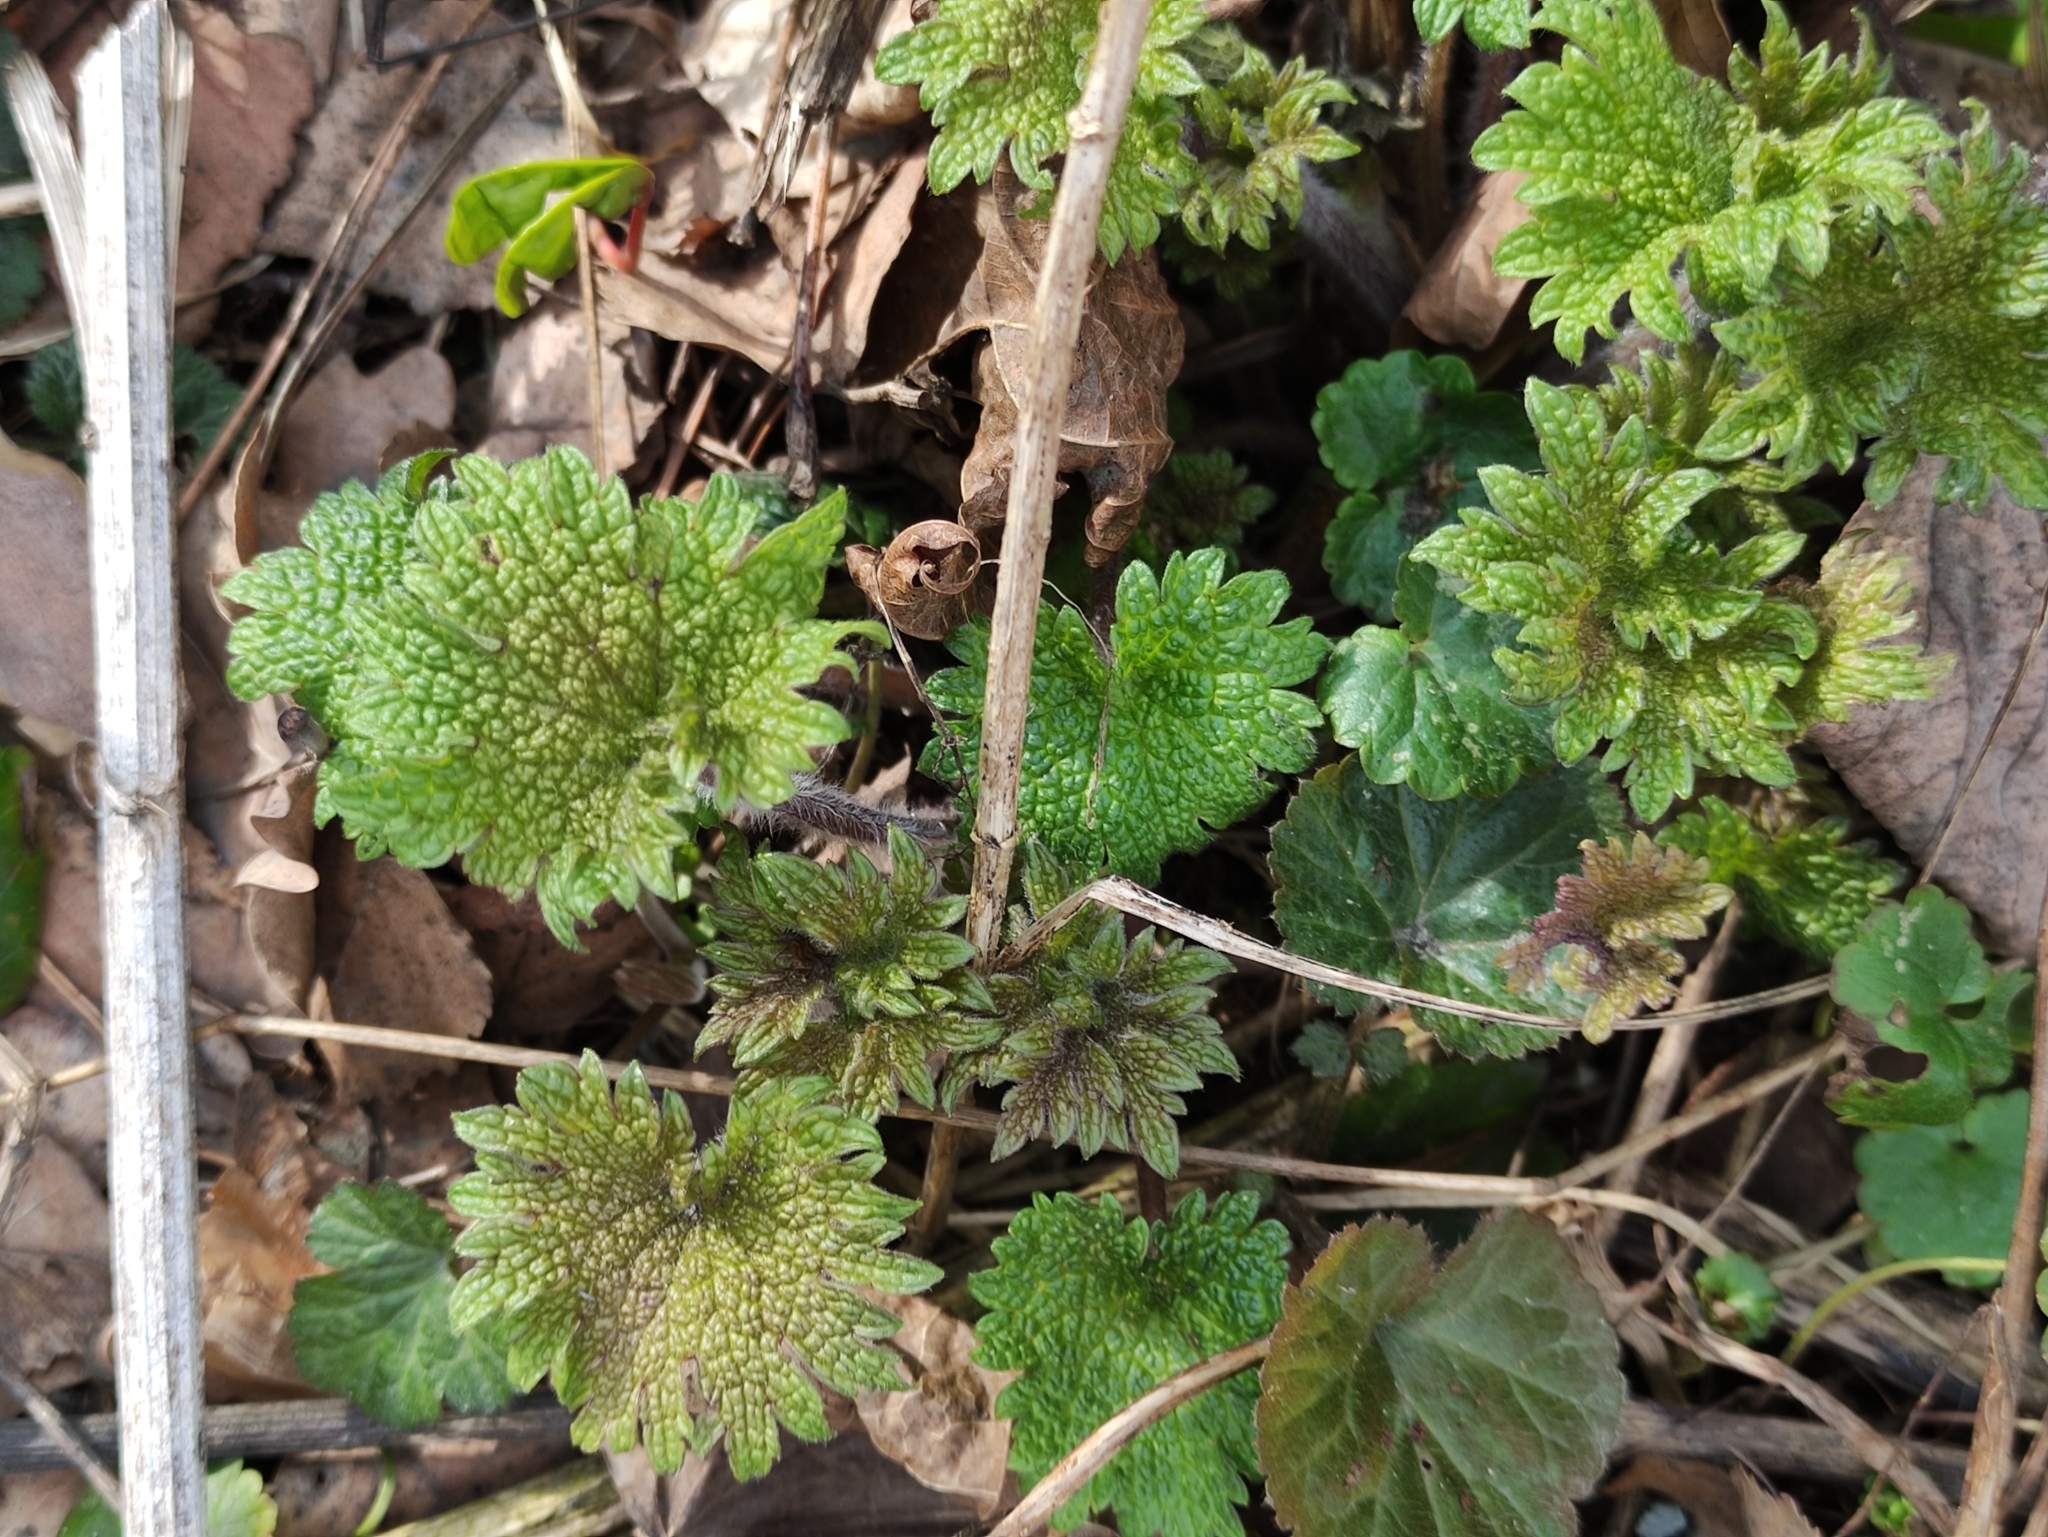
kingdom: Plantae
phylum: Tracheophyta
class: Magnoliopsida
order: Lamiales
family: Lamiaceae
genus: Leonurus
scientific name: Leonurus quinquelobatus
